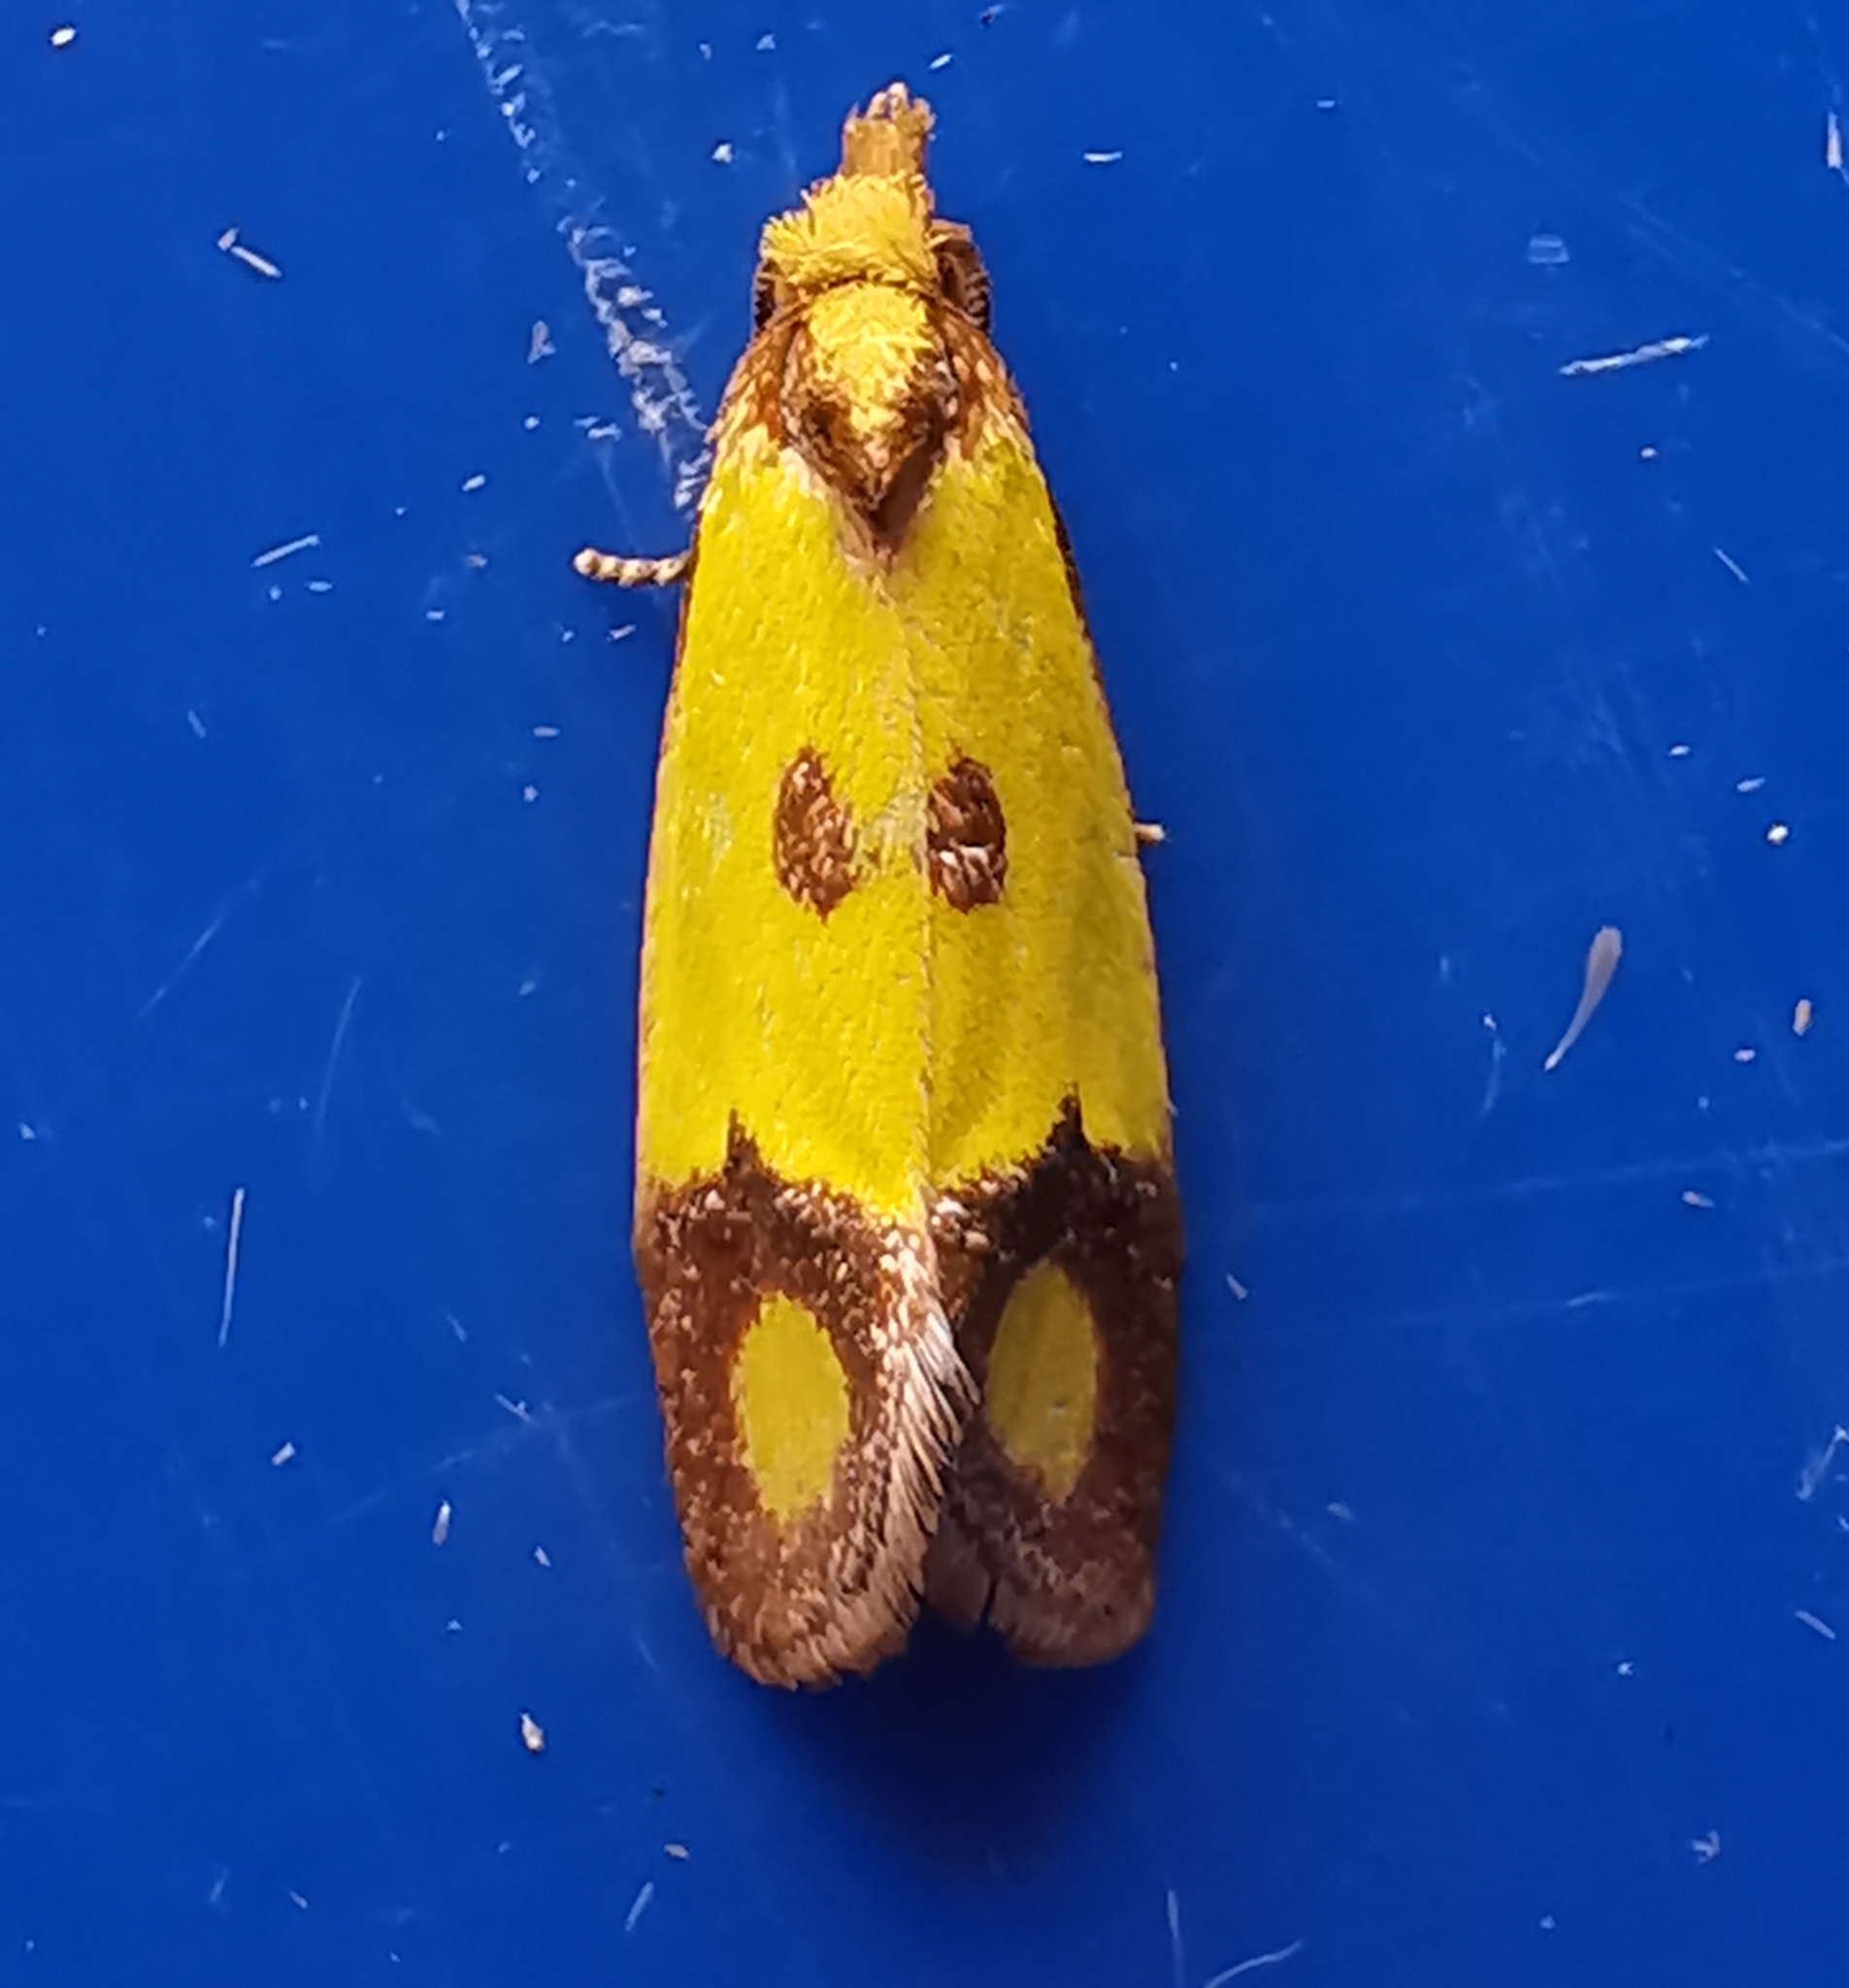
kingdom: Animalia
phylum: Arthropoda
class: Insecta
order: Lepidoptera
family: Tortricidae
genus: Agapeta
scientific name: Agapeta zoegana
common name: Sulfur knapweed root moth
